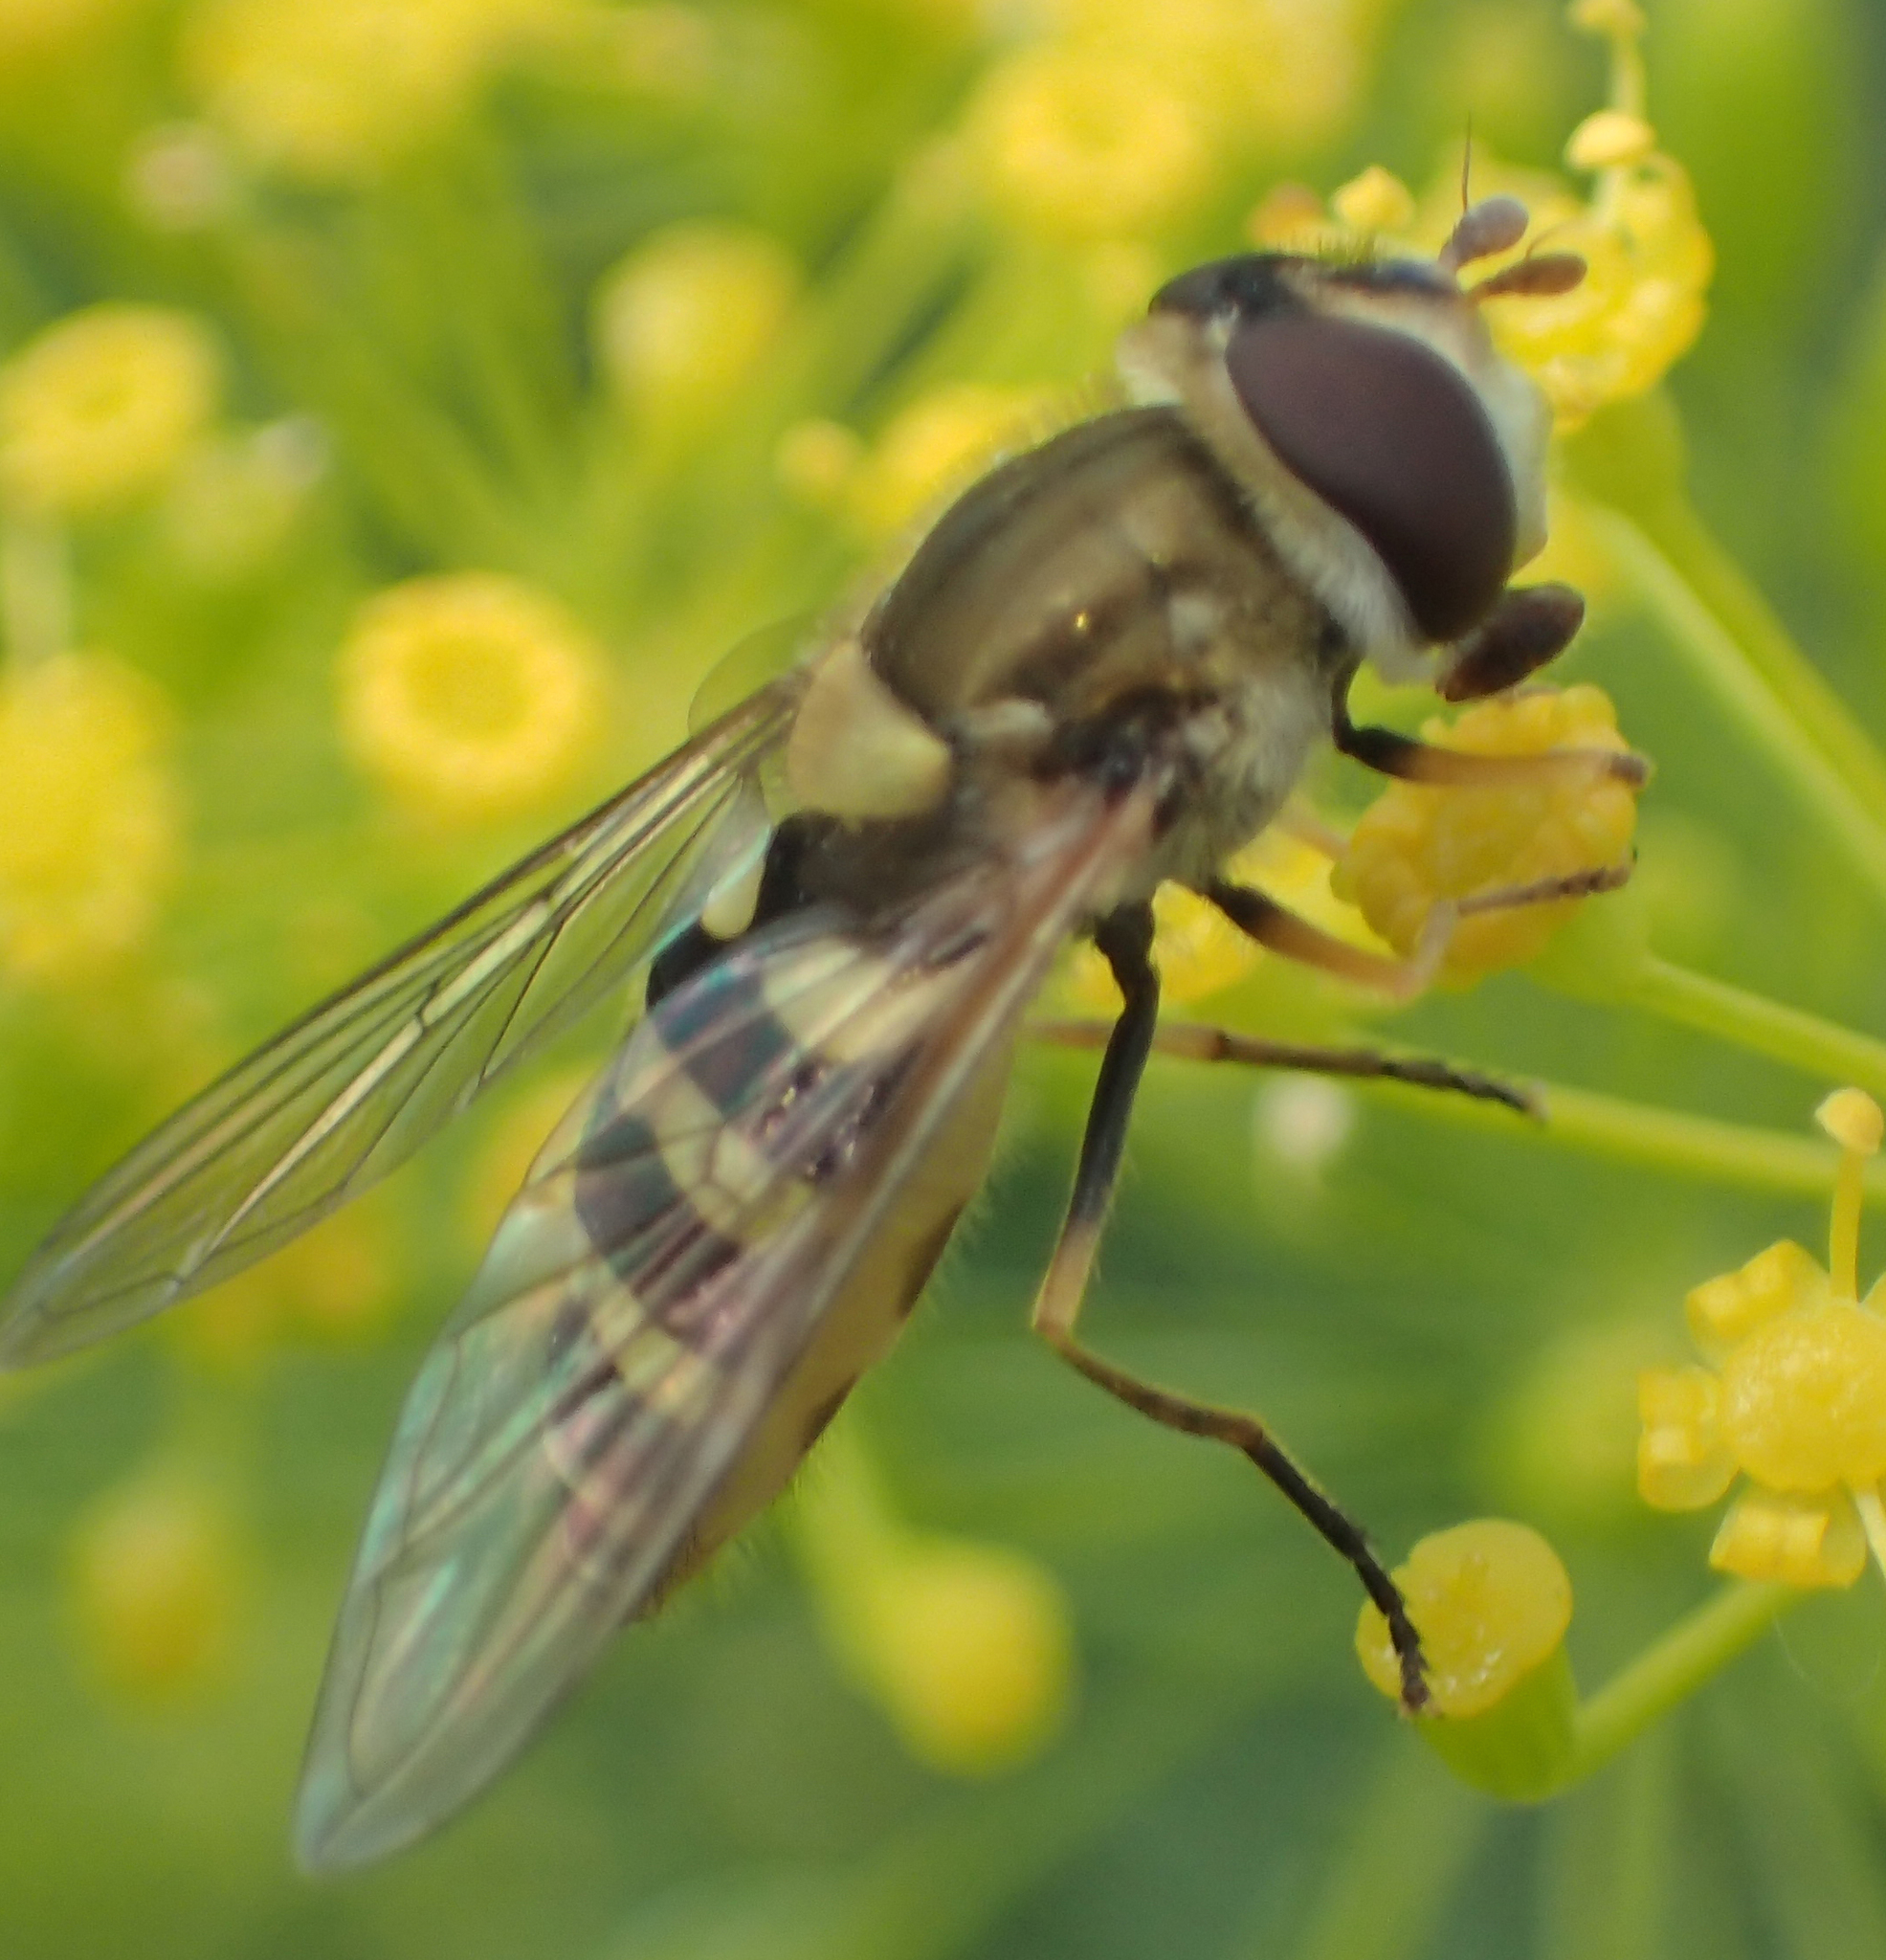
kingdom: Animalia
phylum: Arthropoda
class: Insecta
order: Diptera
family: Syrphidae
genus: Syrphus
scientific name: Syrphus
